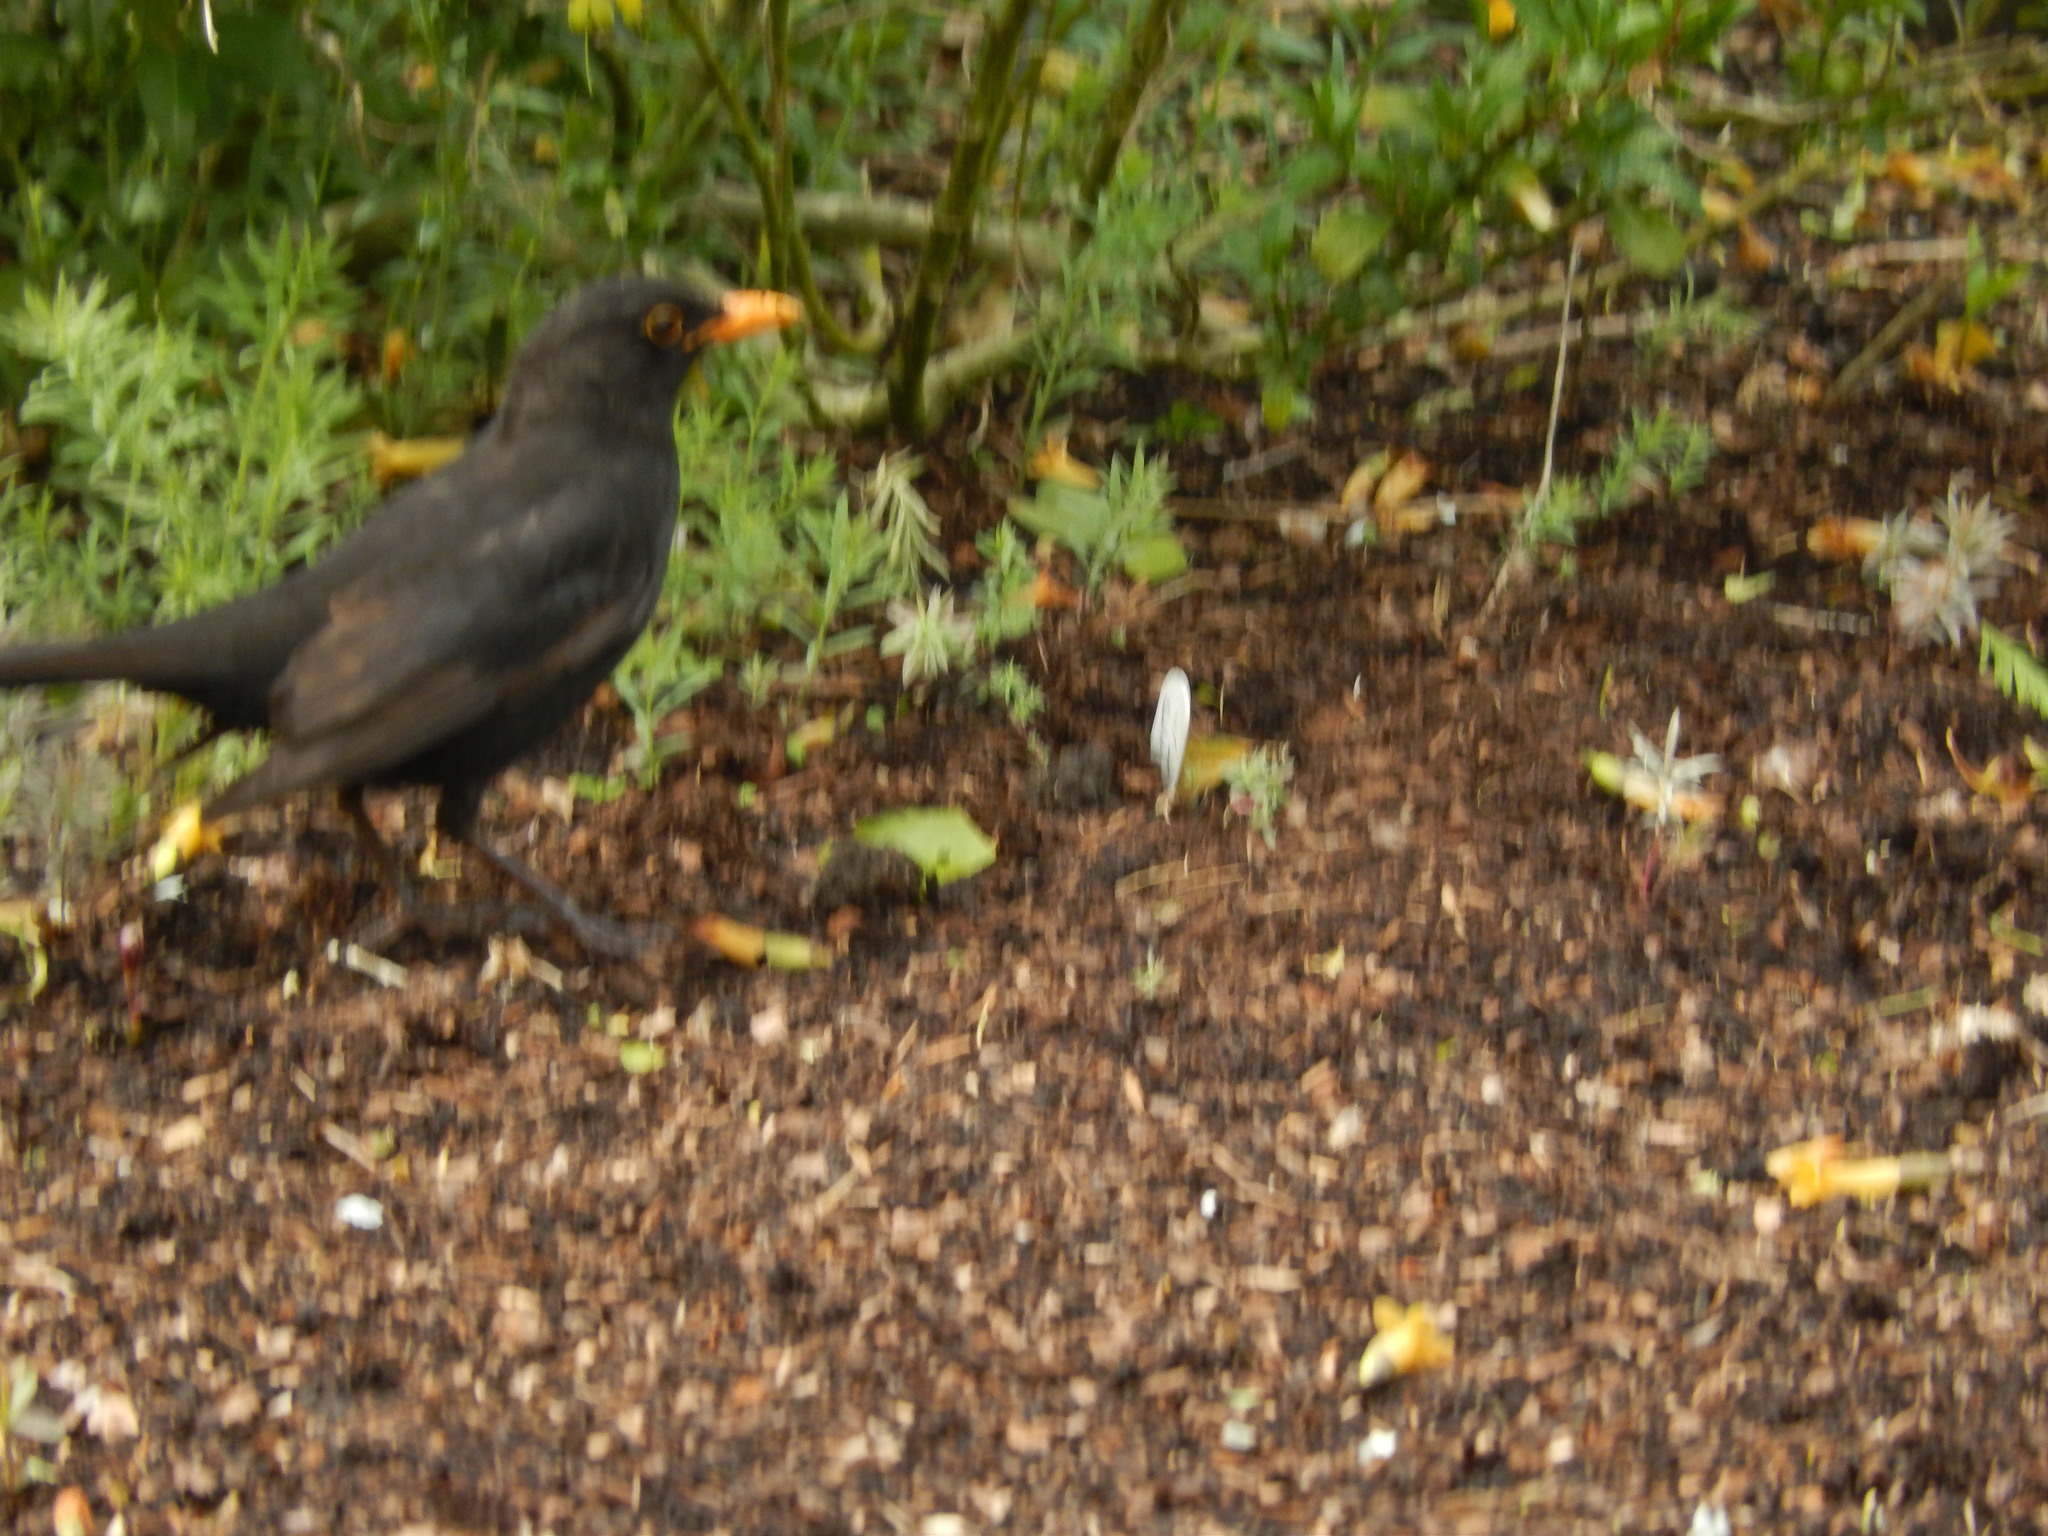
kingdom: Animalia
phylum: Chordata
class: Aves
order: Passeriformes
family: Turdidae
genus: Turdus
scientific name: Turdus merula
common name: Common blackbird
